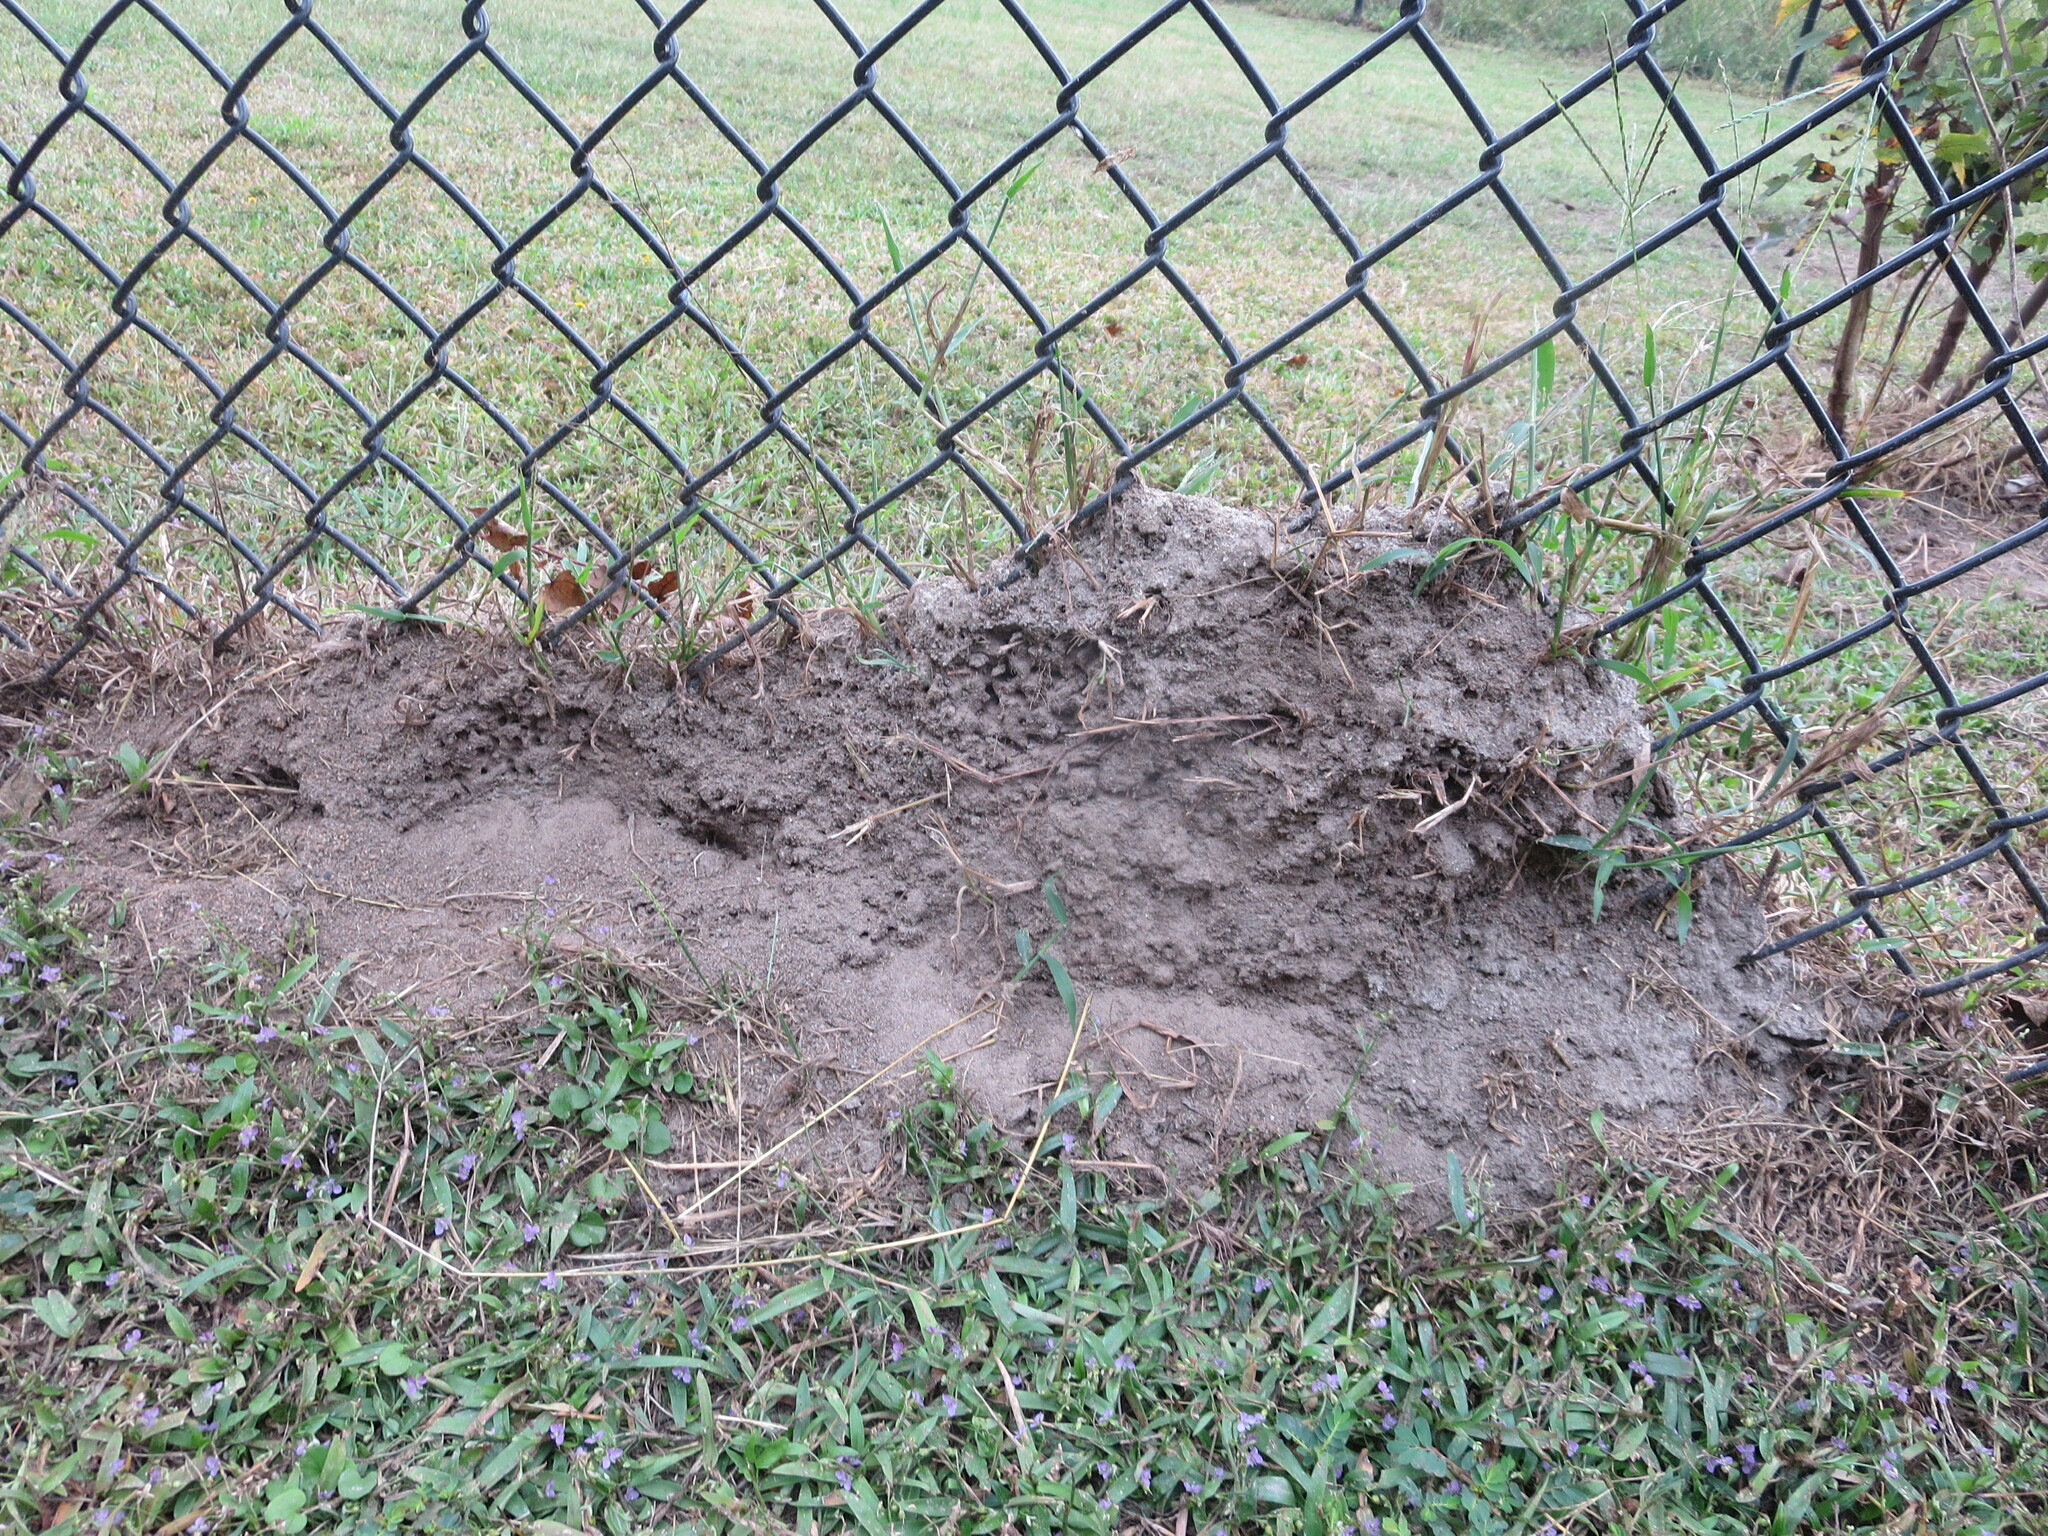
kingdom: Animalia
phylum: Arthropoda
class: Insecta
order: Hymenoptera
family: Formicidae
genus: Solenopsis
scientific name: Solenopsis invicta
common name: Red imported fire ant
